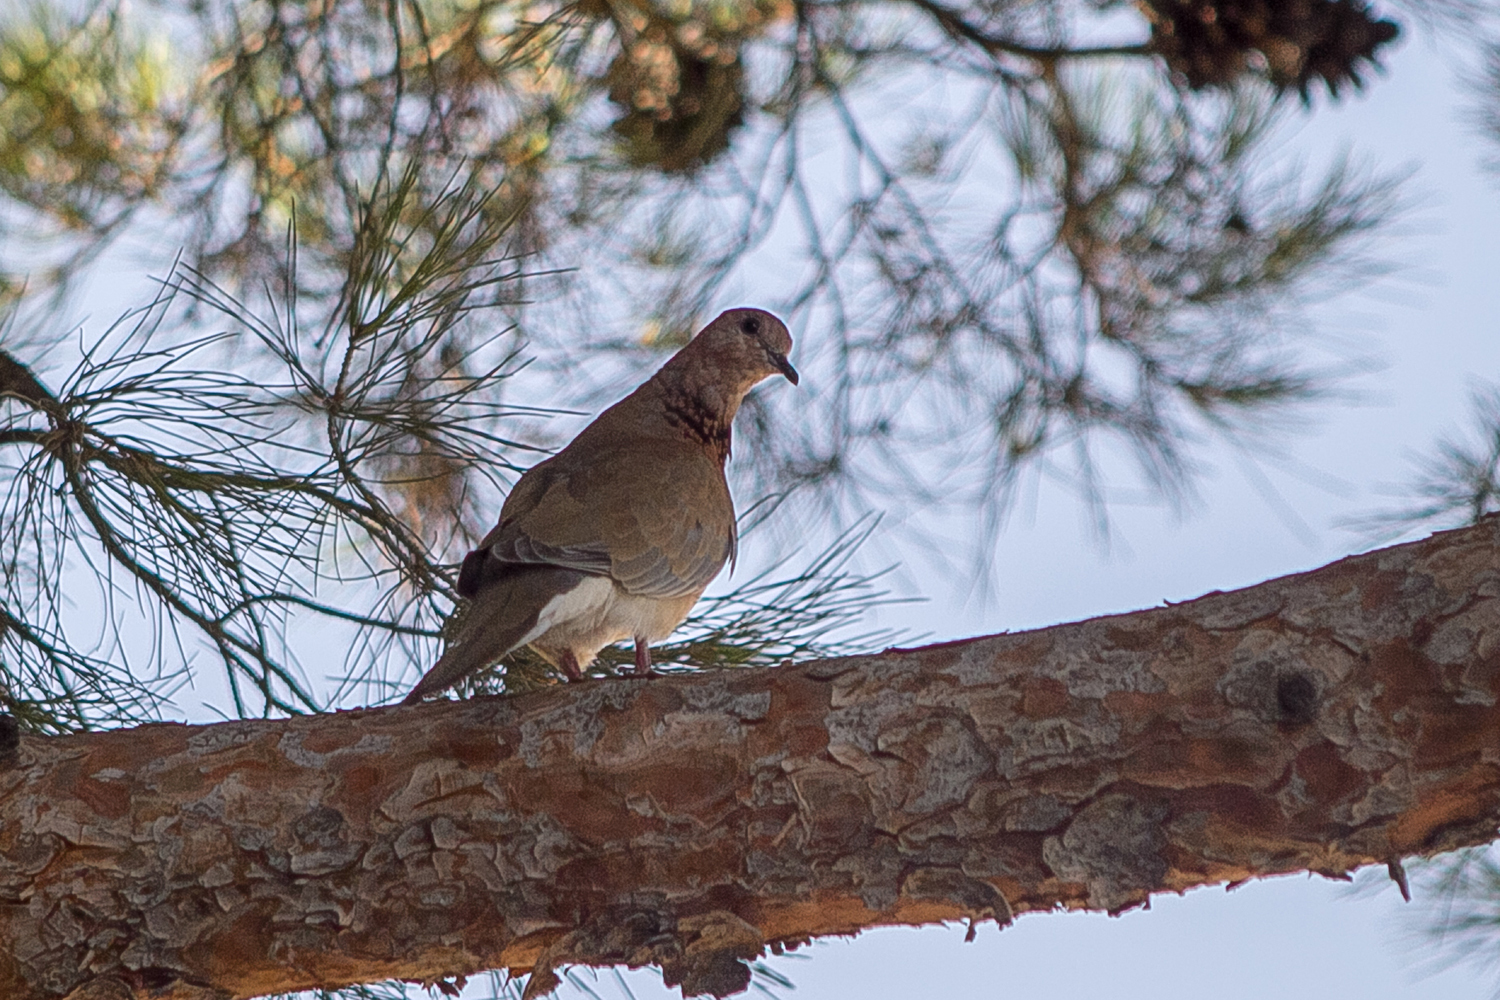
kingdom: Animalia
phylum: Chordata
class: Aves
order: Columbiformes
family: Columbidae
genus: Spilopelia
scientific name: Spilopelia senegalensis
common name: Laughing dove
